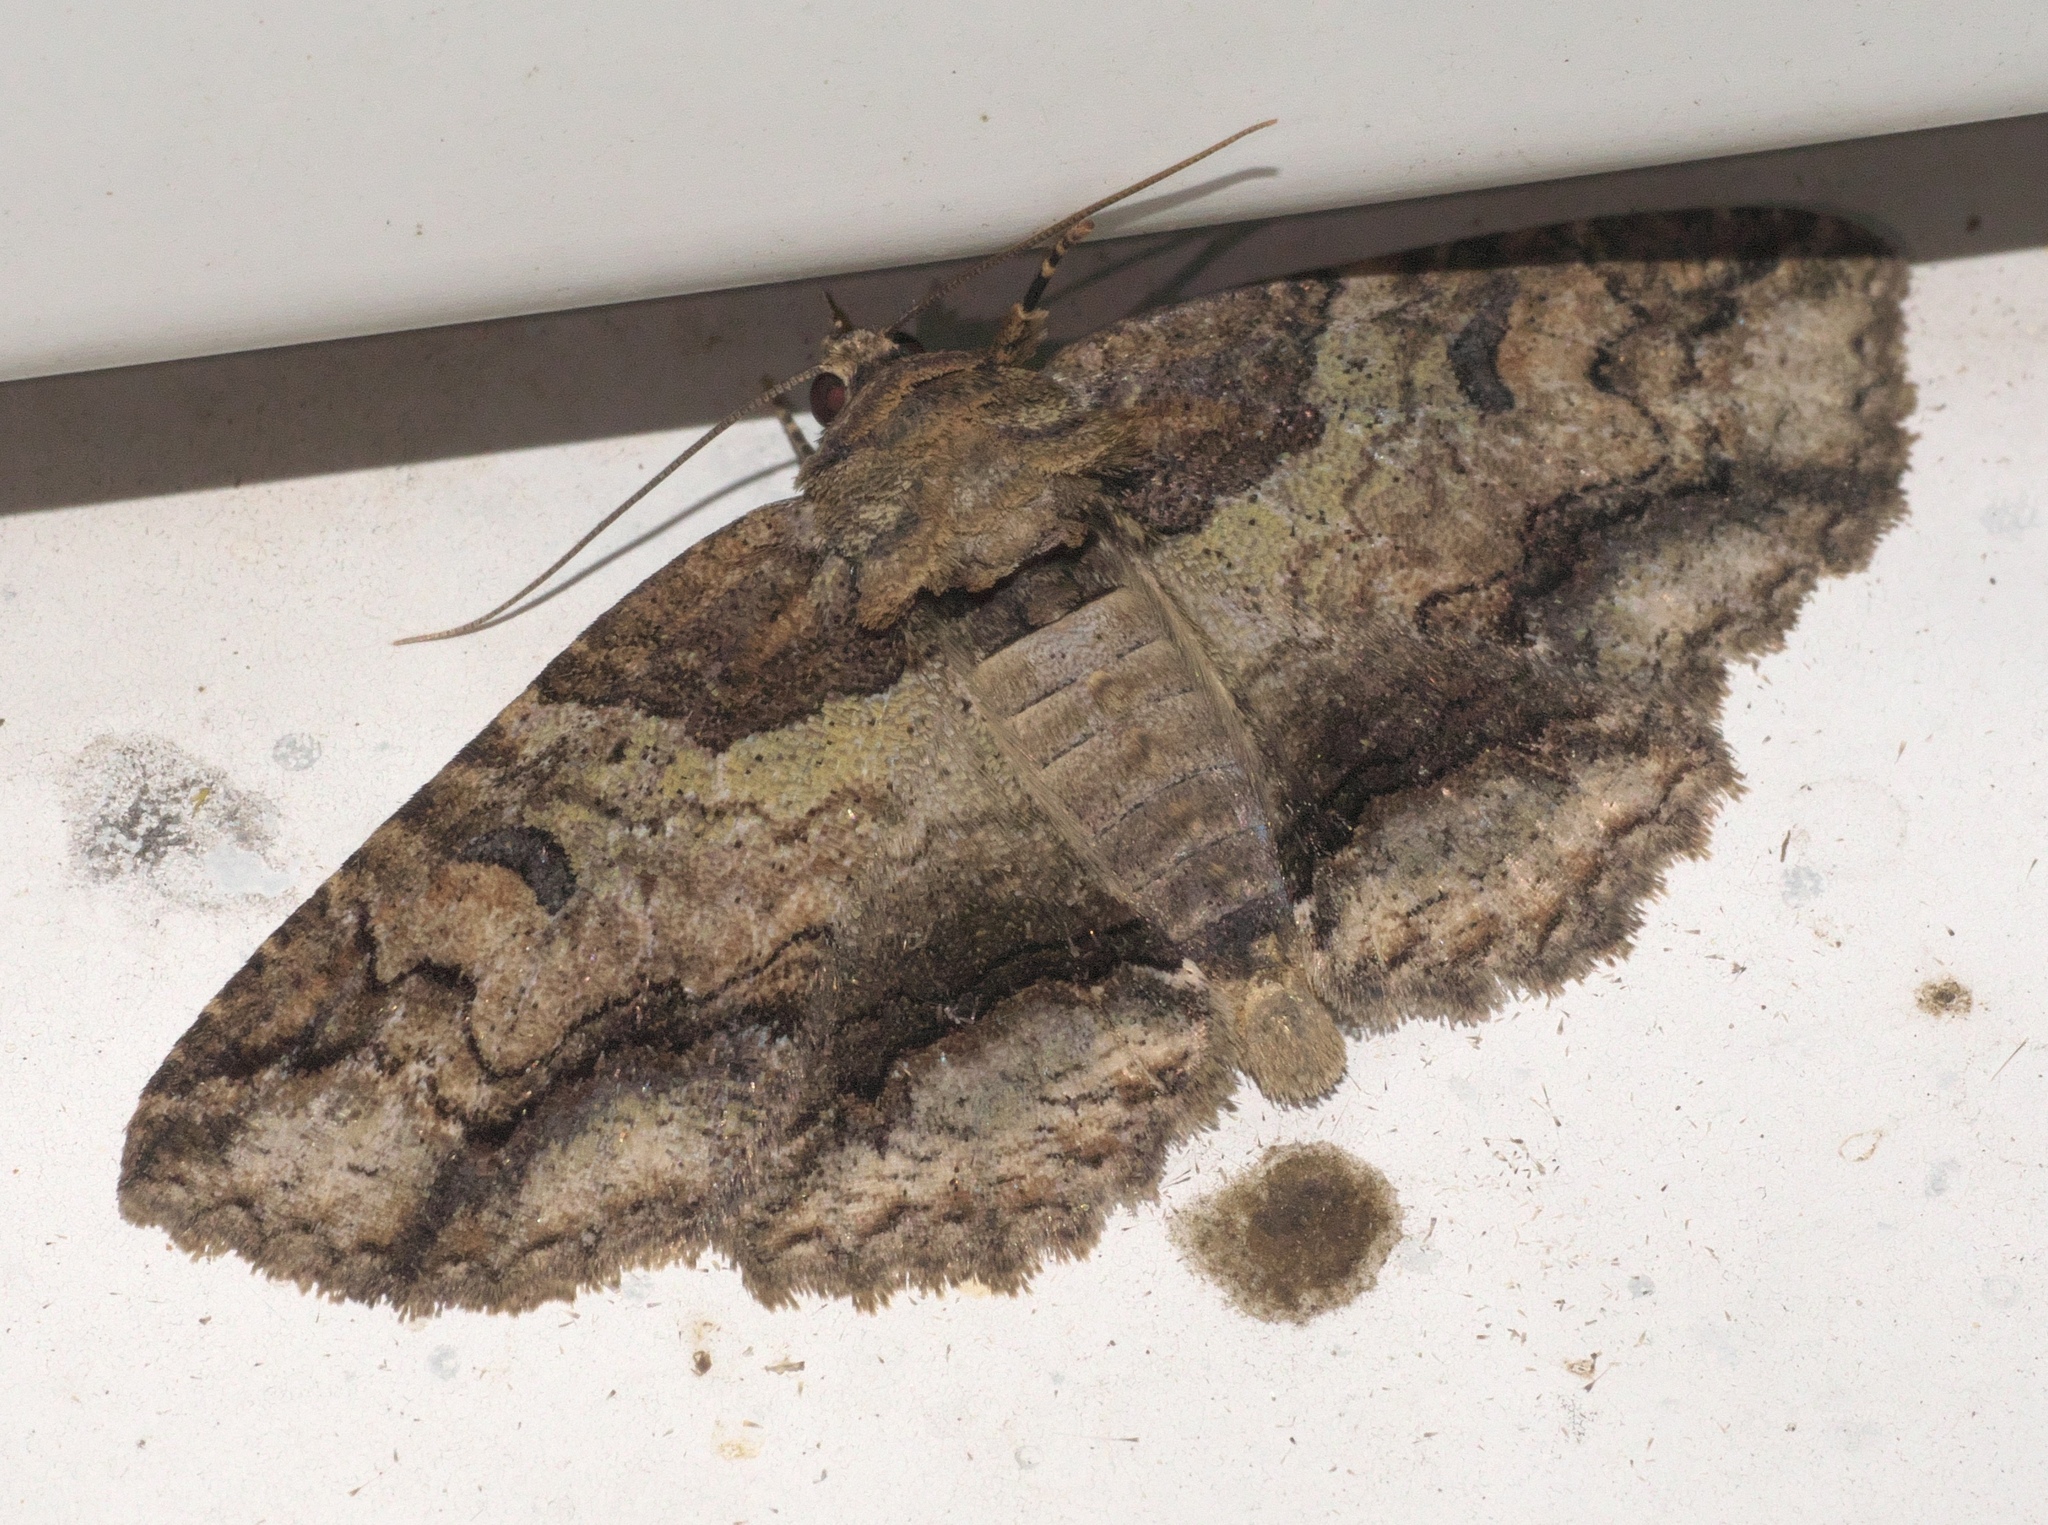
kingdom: Animalia
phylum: Arthropoda
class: Insecta
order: Lepidoptera
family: Erebidae
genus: Zale
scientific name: Zale galbanata
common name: Maple zale
